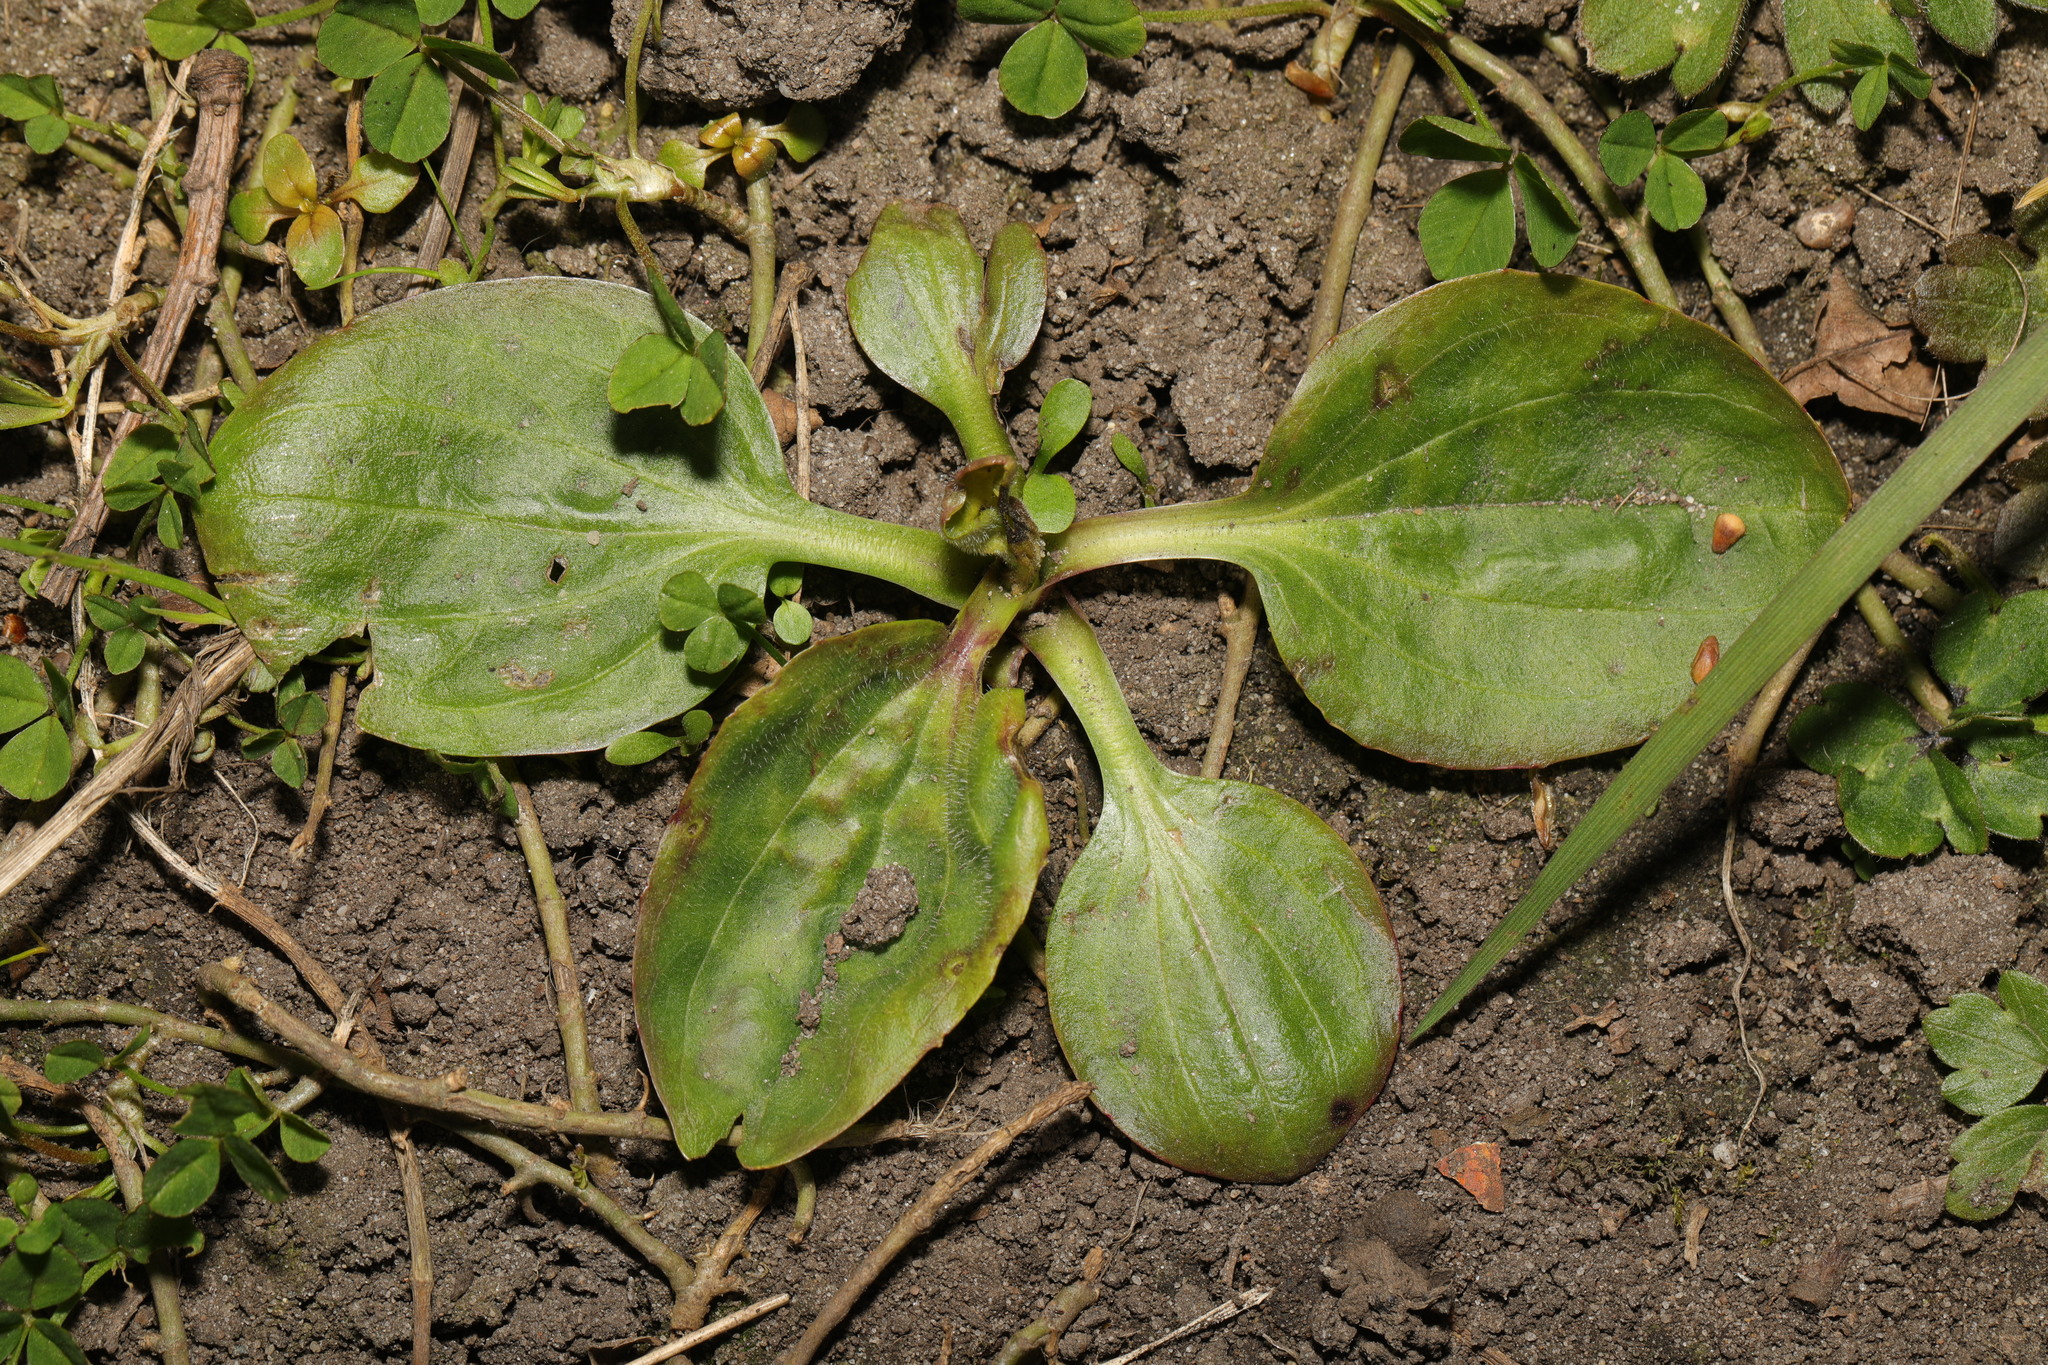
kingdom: Plantae
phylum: Tracheophyta
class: Magnoliopsida
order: Lamiales
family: Plantaginaceae
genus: Plantago
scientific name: Plantago major
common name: Common plantain
